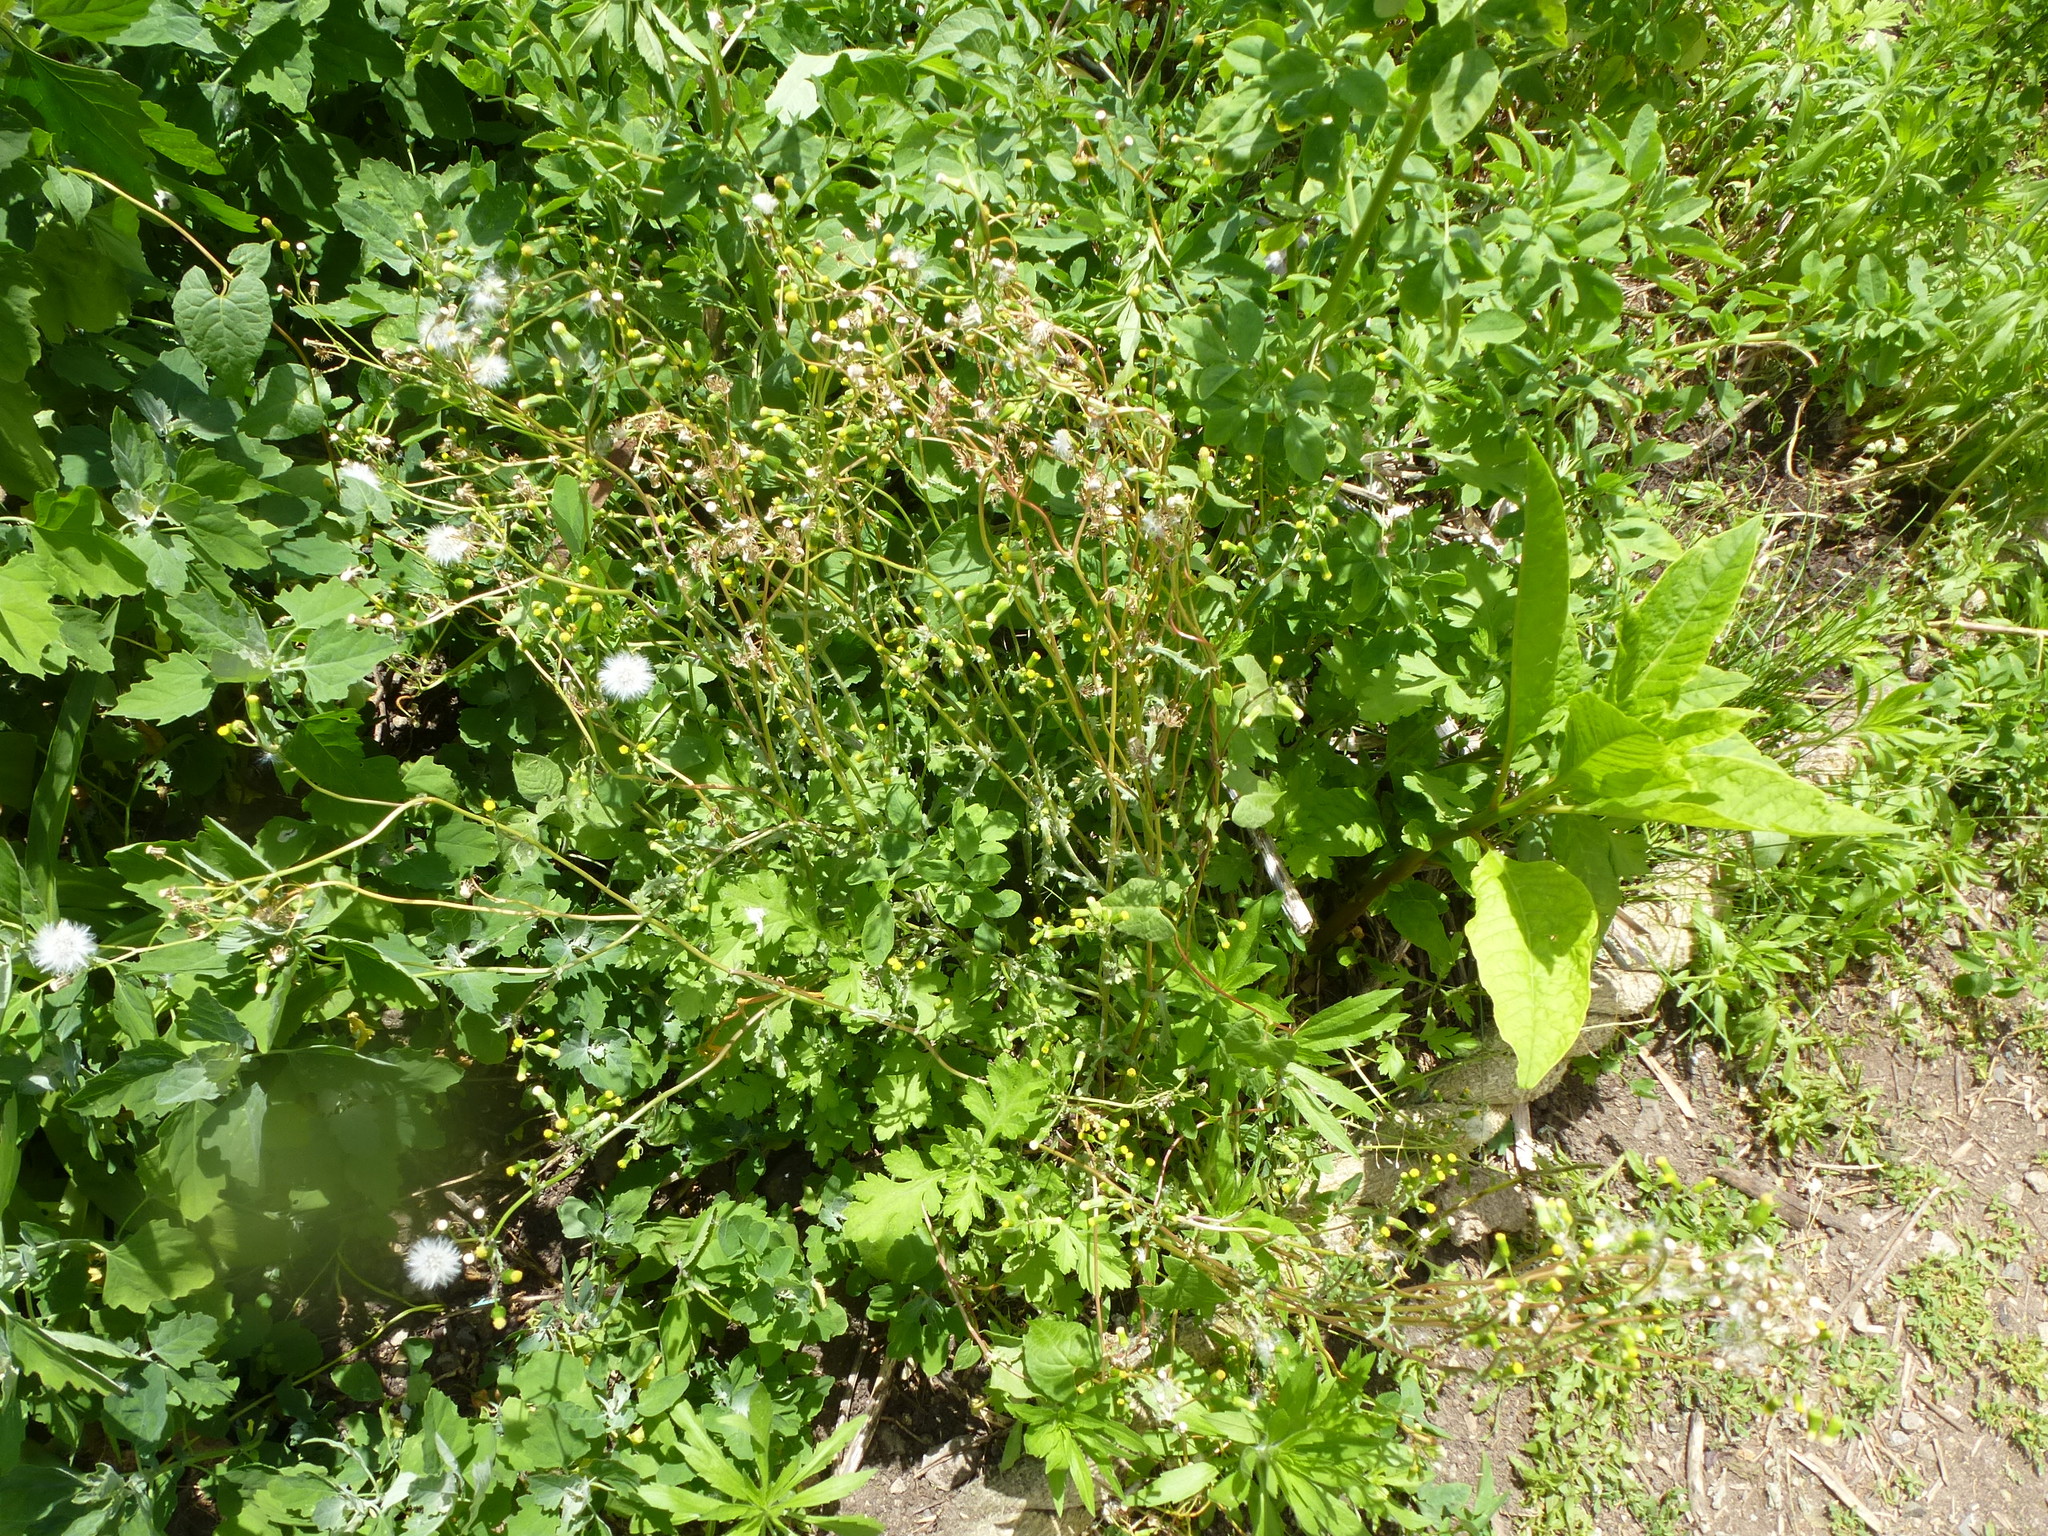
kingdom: Plantae
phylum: Tracheophyta
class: Magnoliopsida
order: Asterales
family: Asteraceae
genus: Senecio
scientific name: Senecio vulgaris
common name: Old-man-in-the-spring
